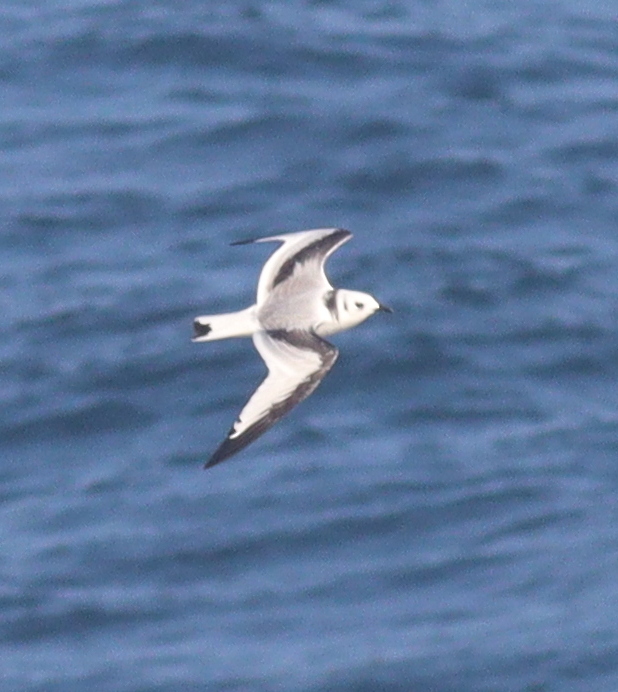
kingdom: Animalia
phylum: Chordata
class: Aves
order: Charadriiformes
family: Laridae
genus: Rissa
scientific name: Rissa tridactyla
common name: Black-legged kittiwake
